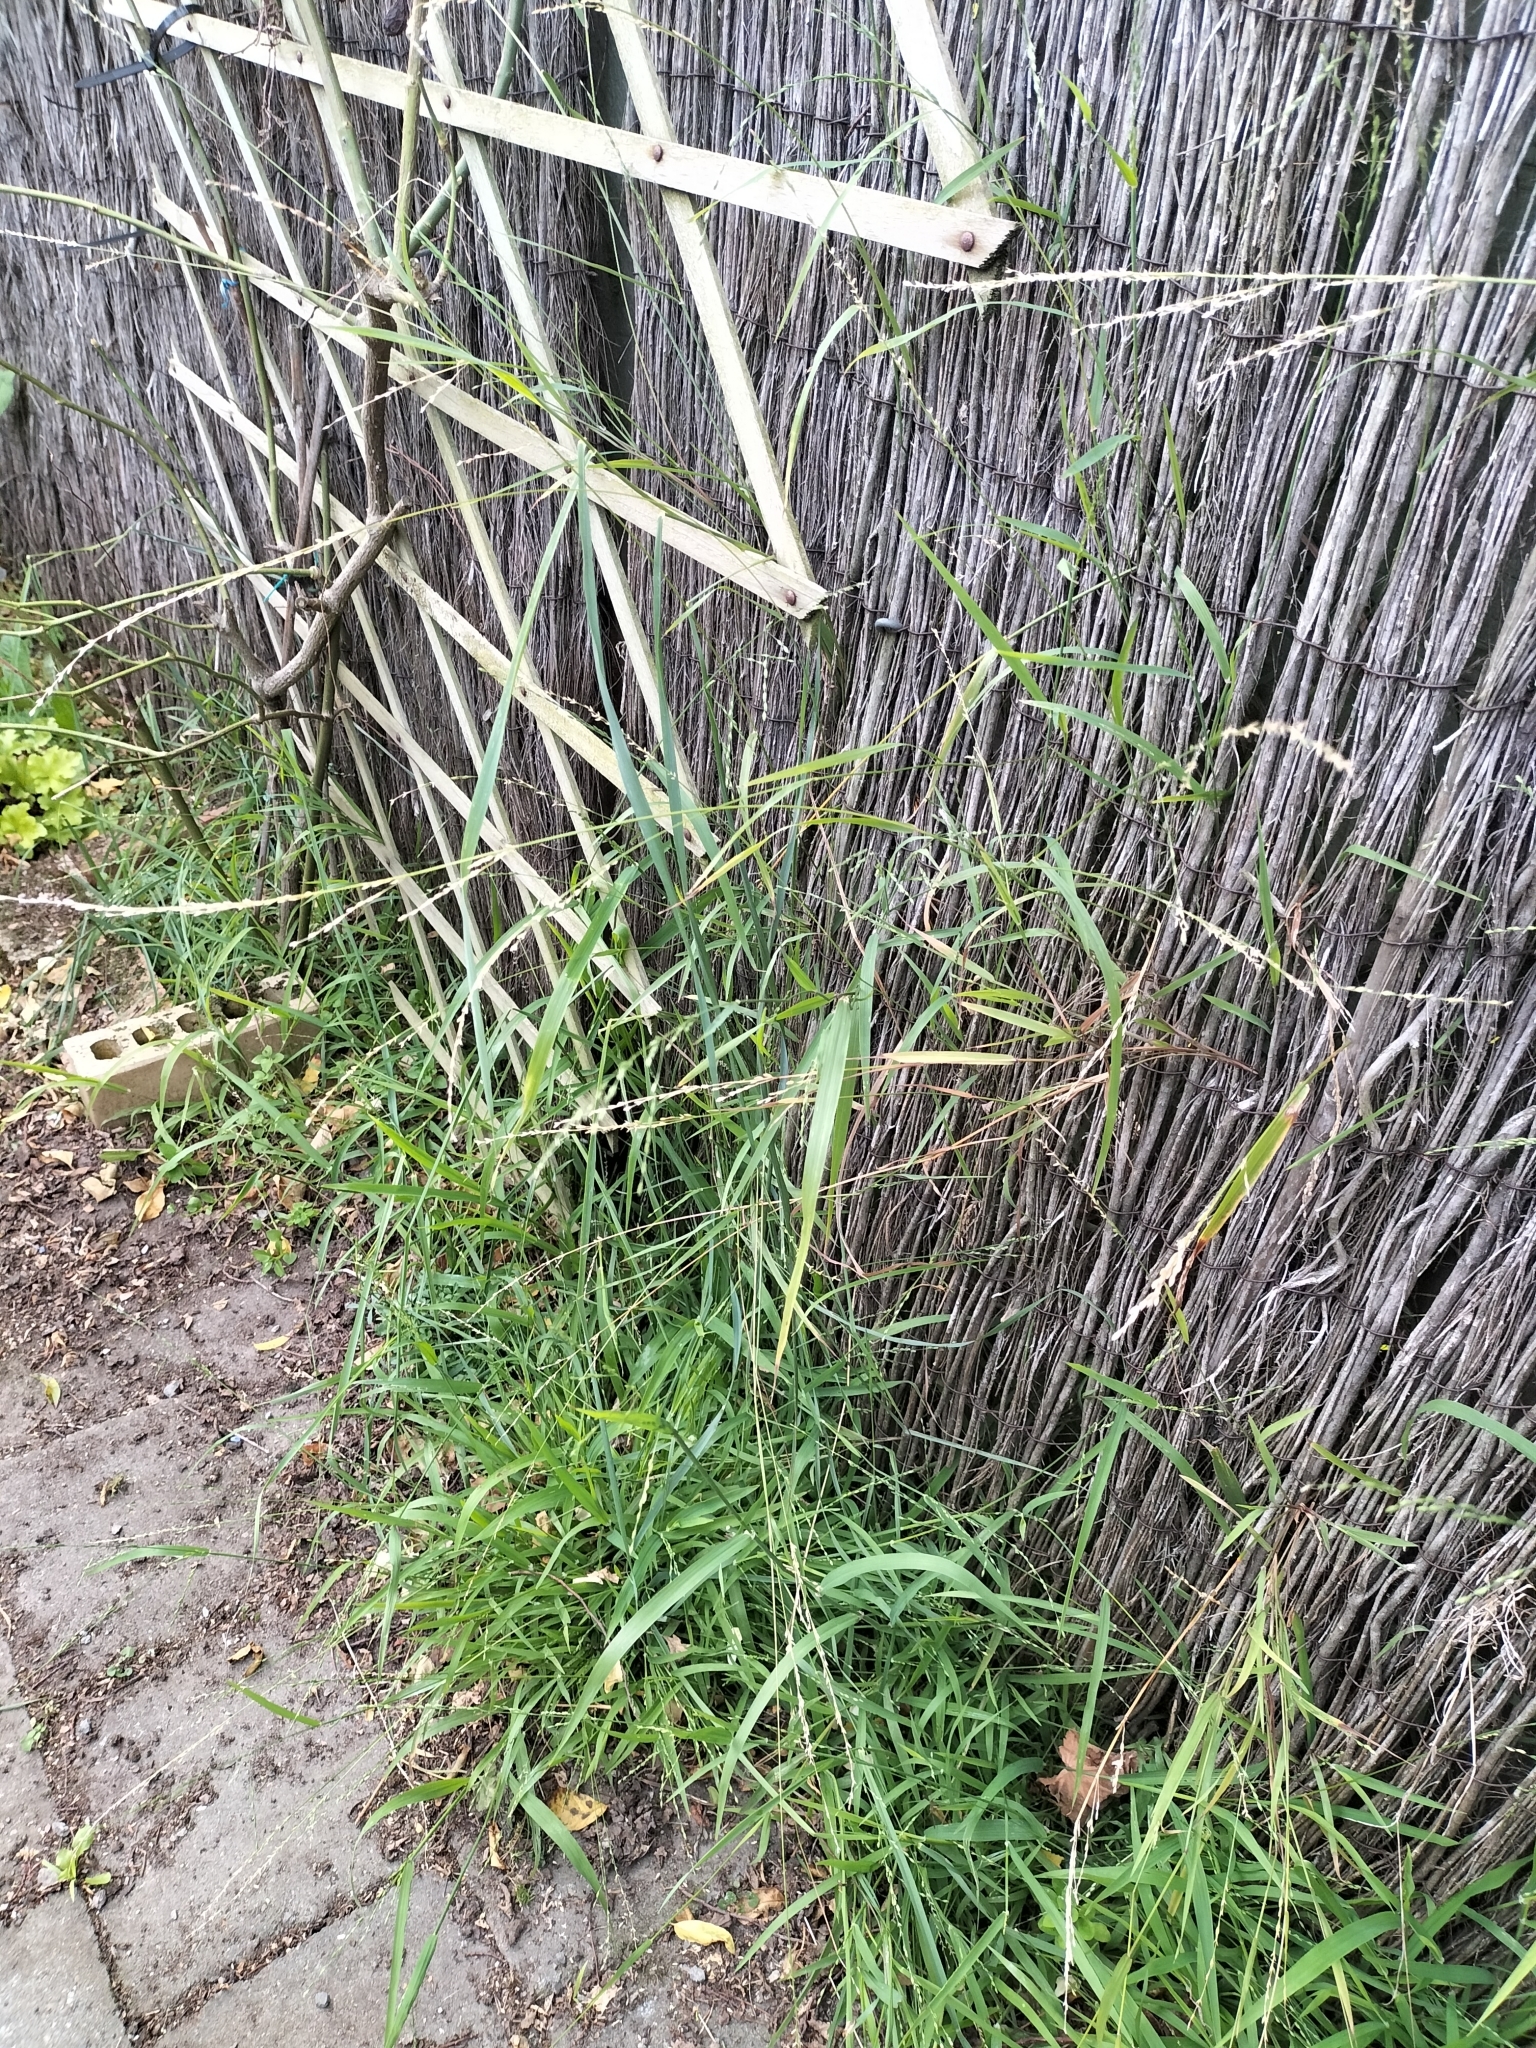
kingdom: Plantae
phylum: Tracheophyta
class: Liliopsida
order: Poales
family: Poaceae
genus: Ehrharta
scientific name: Ehrharta erecta
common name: Panic veldtgrass
